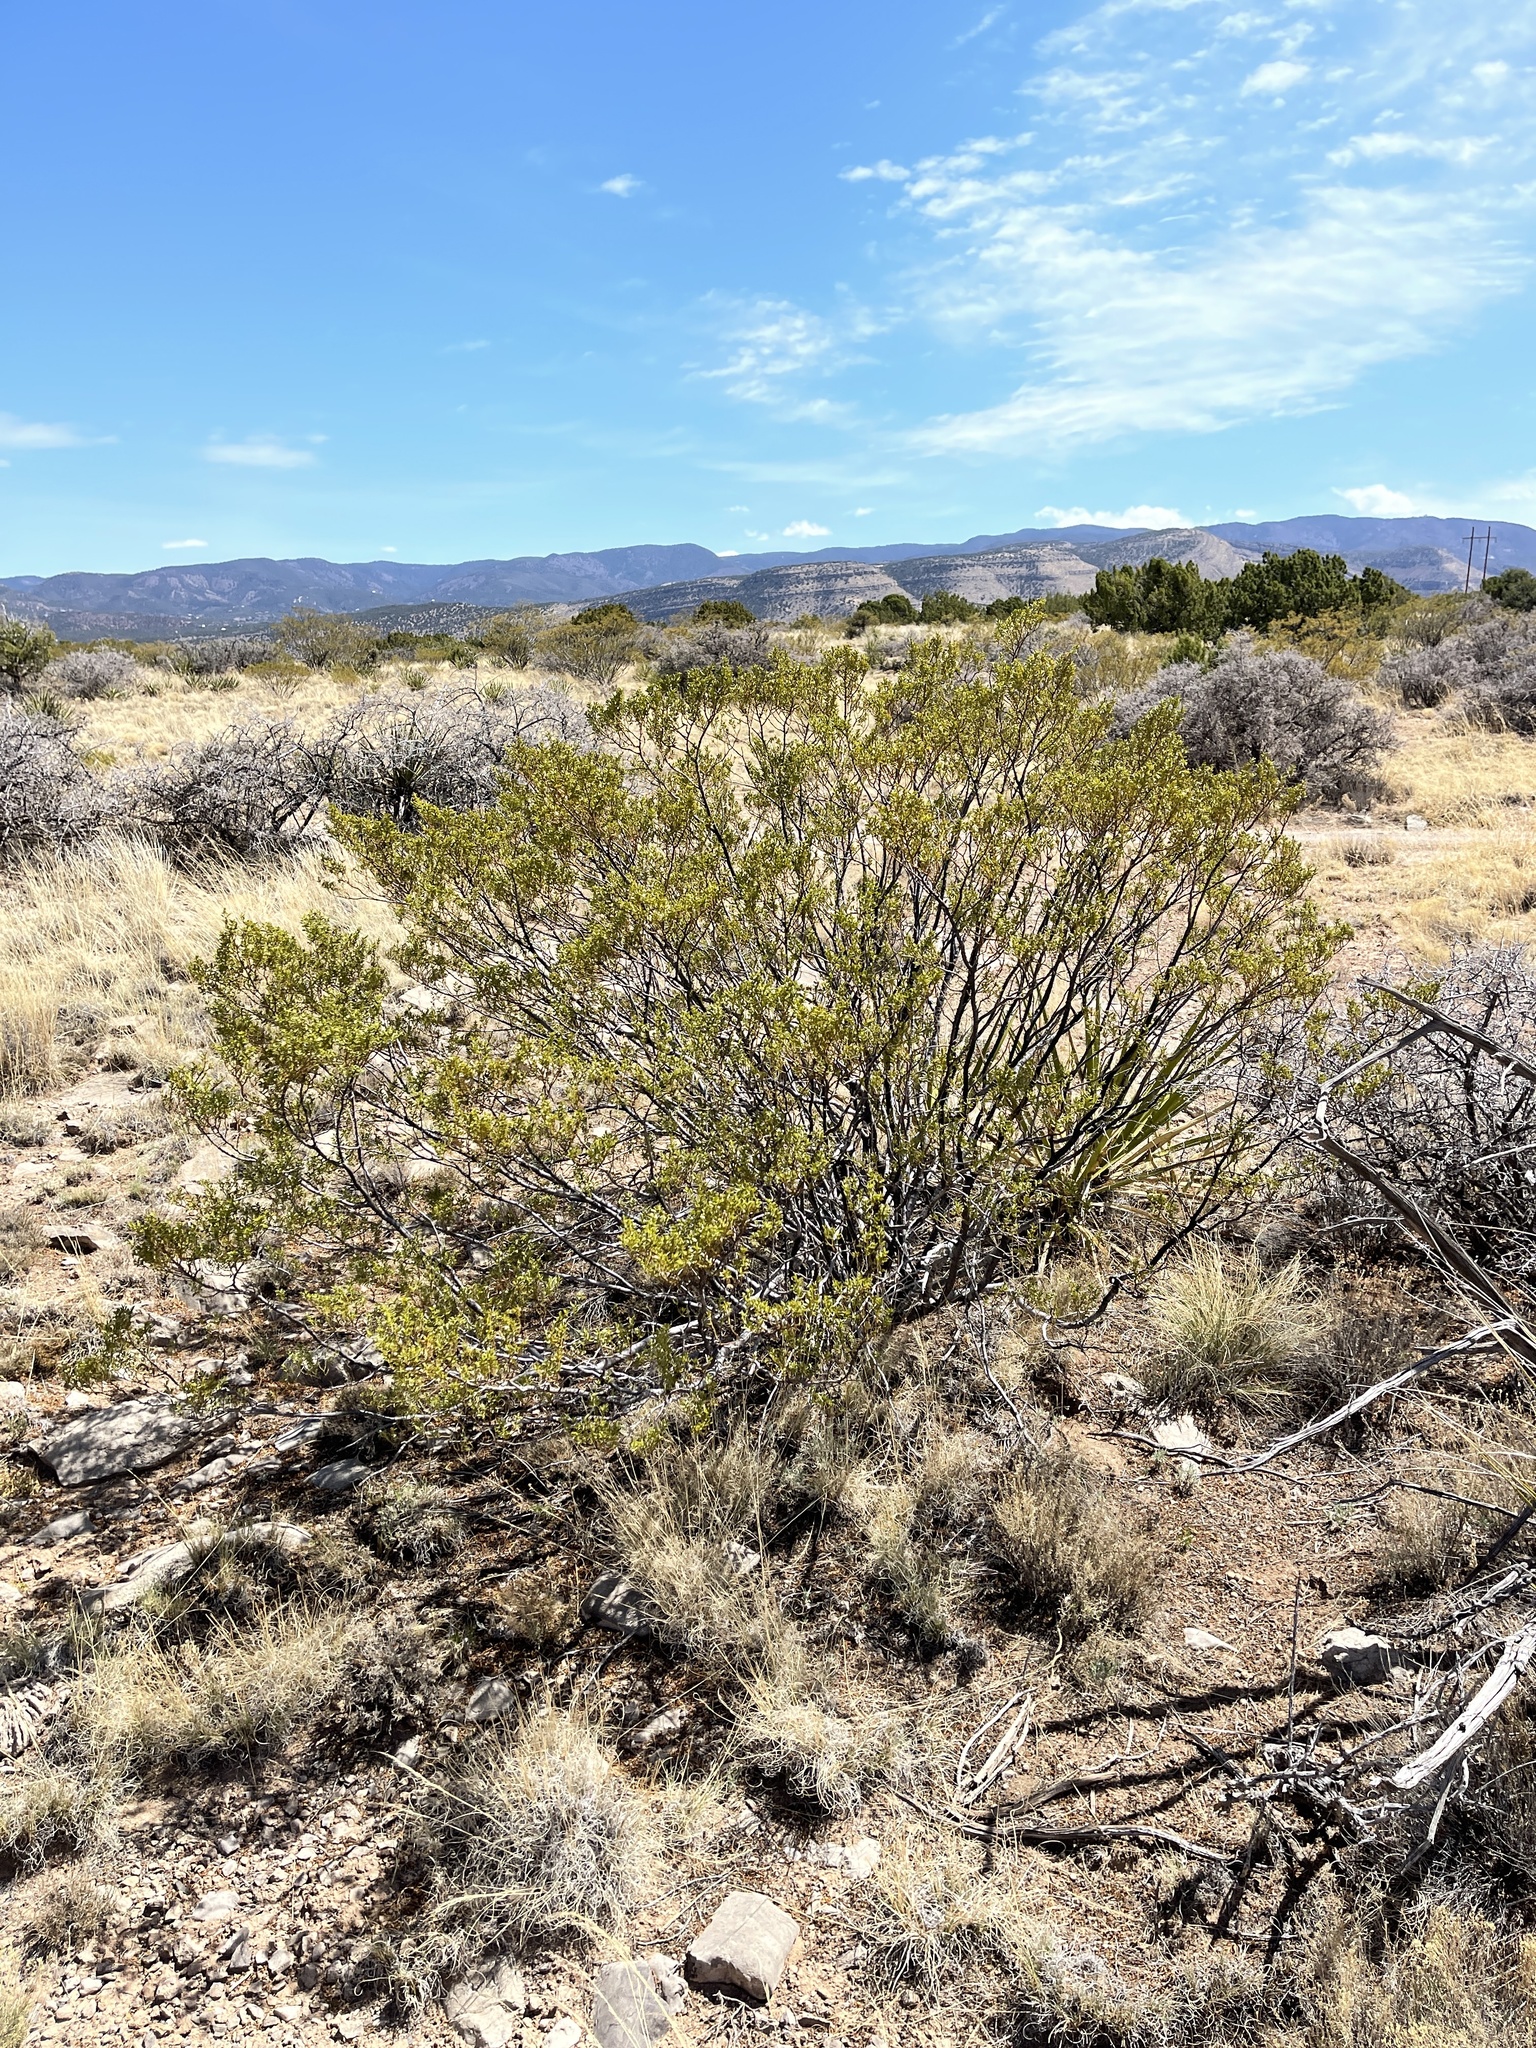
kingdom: Plantae
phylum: Tracheophyta
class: Magnoliopsida
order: Zygophyllales
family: Zygophyllaceae
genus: Larrea
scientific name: Larrea tridentata
